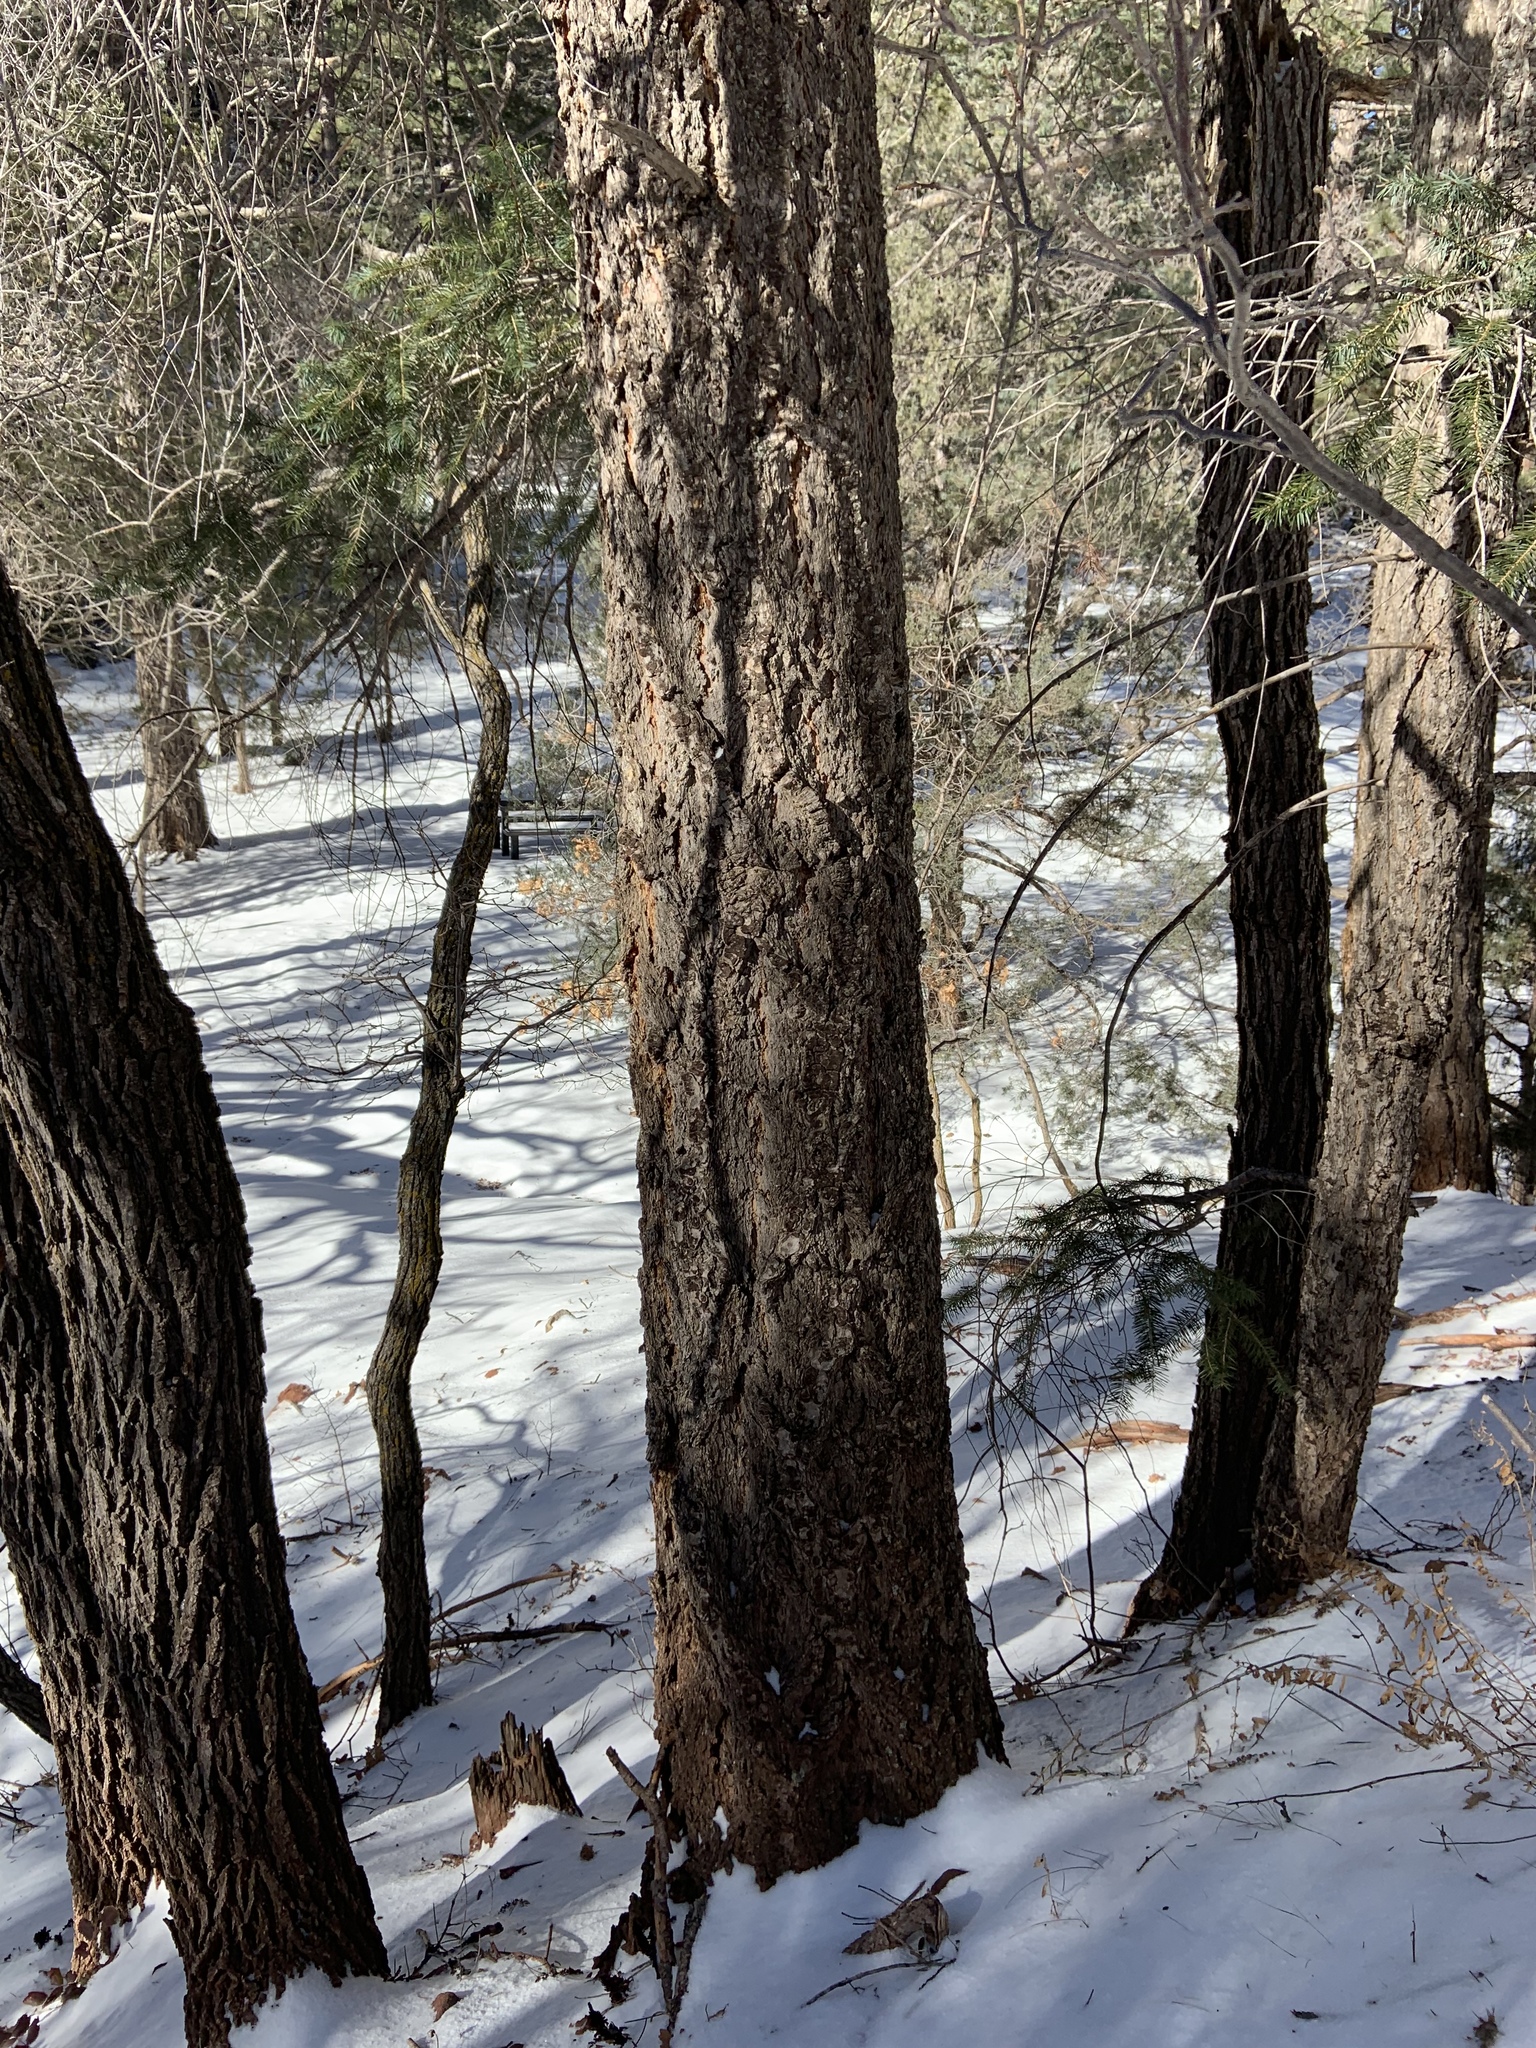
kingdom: Plantae
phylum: Tracheophyta
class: Pinopsida
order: Pinales
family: Pinaceae
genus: Pseudotsuga
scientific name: Pseudotsuga menziesii
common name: Douglas fir
